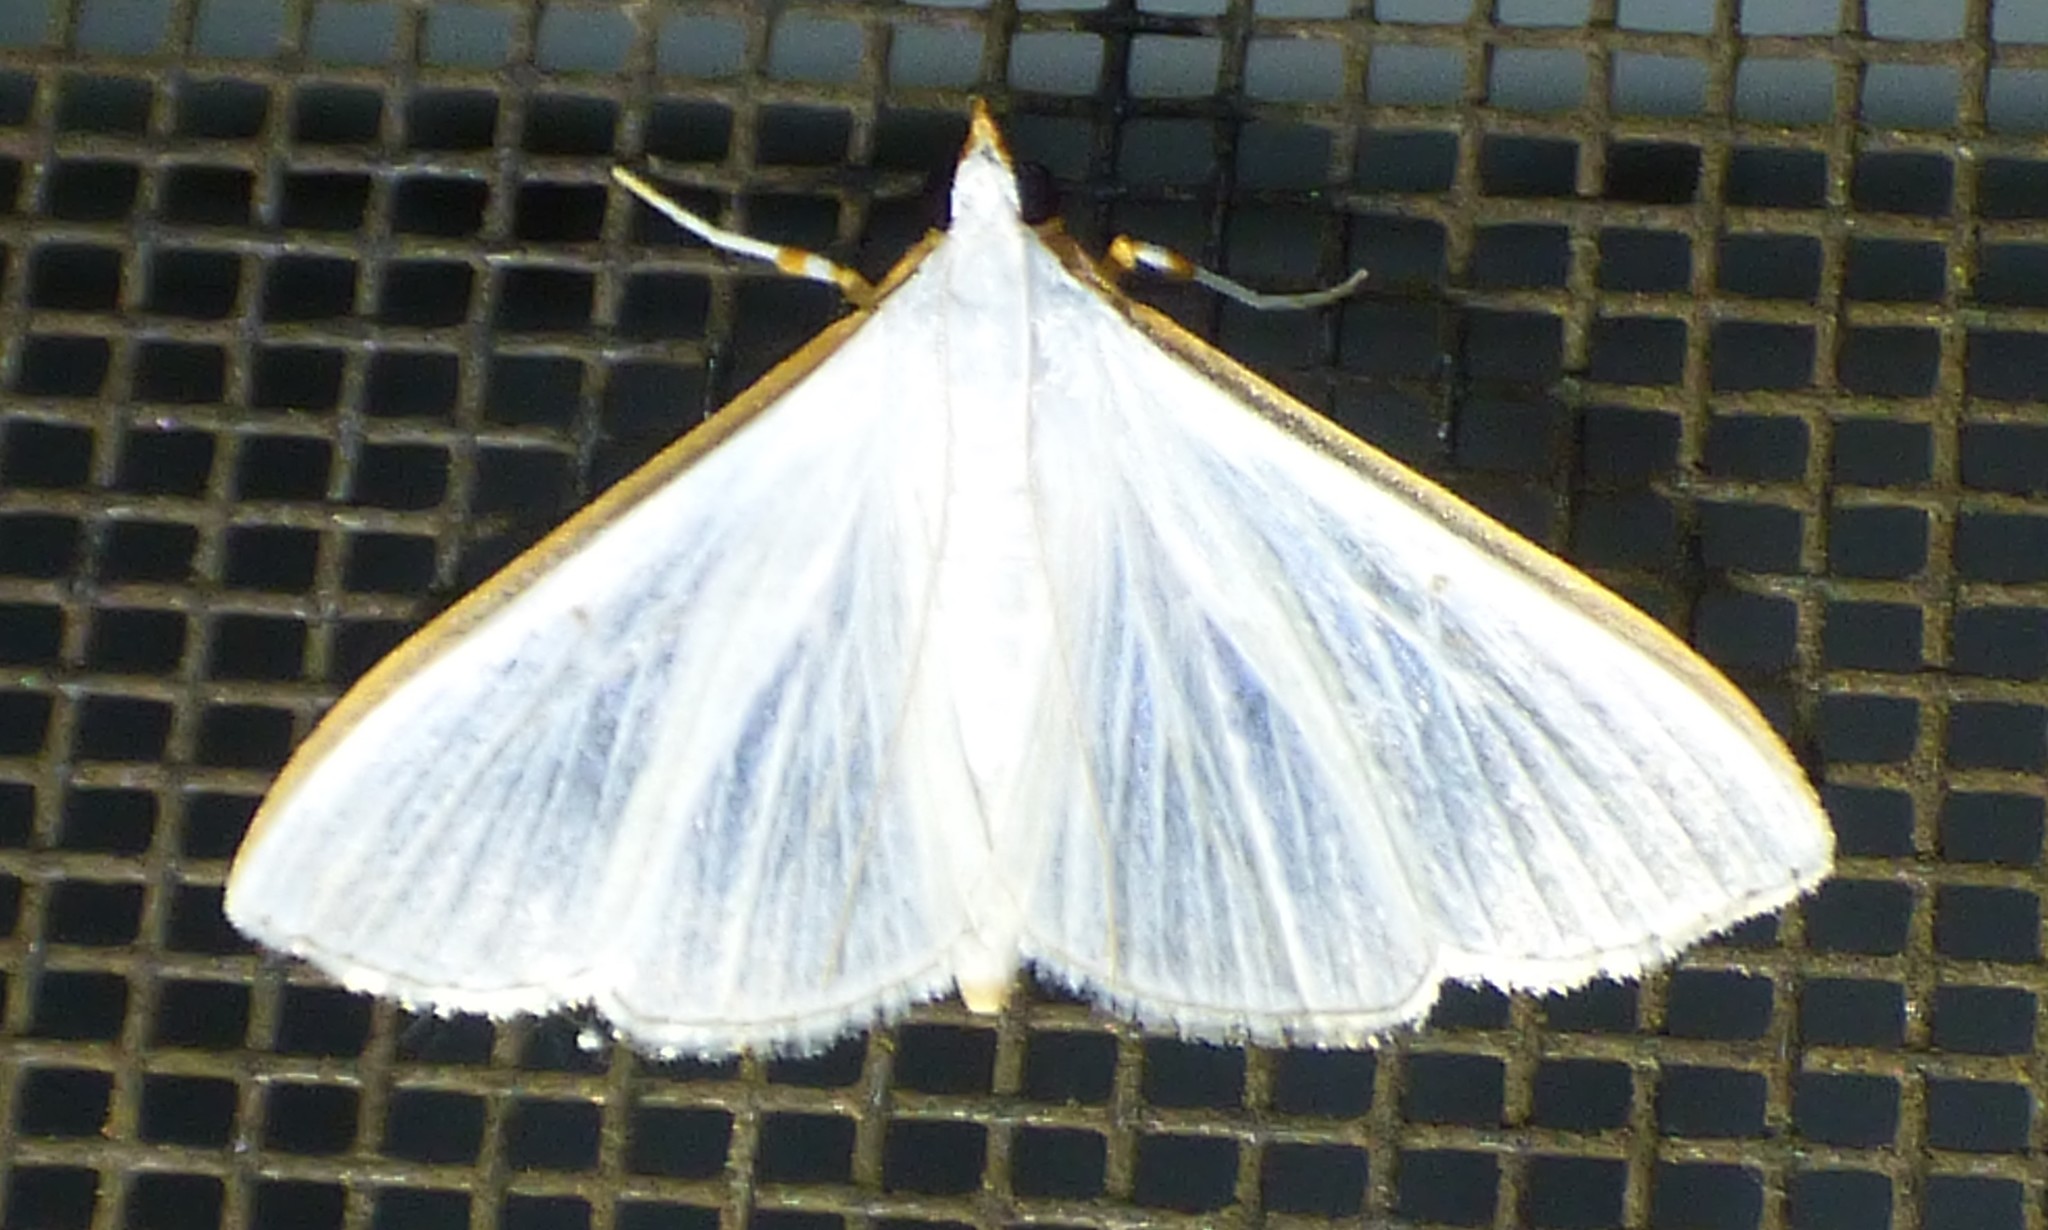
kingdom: Animalia
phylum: Arthropoda
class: Insecta
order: Lepidoptera
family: Crambidae
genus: Diaphania
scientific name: Diaphania costata
